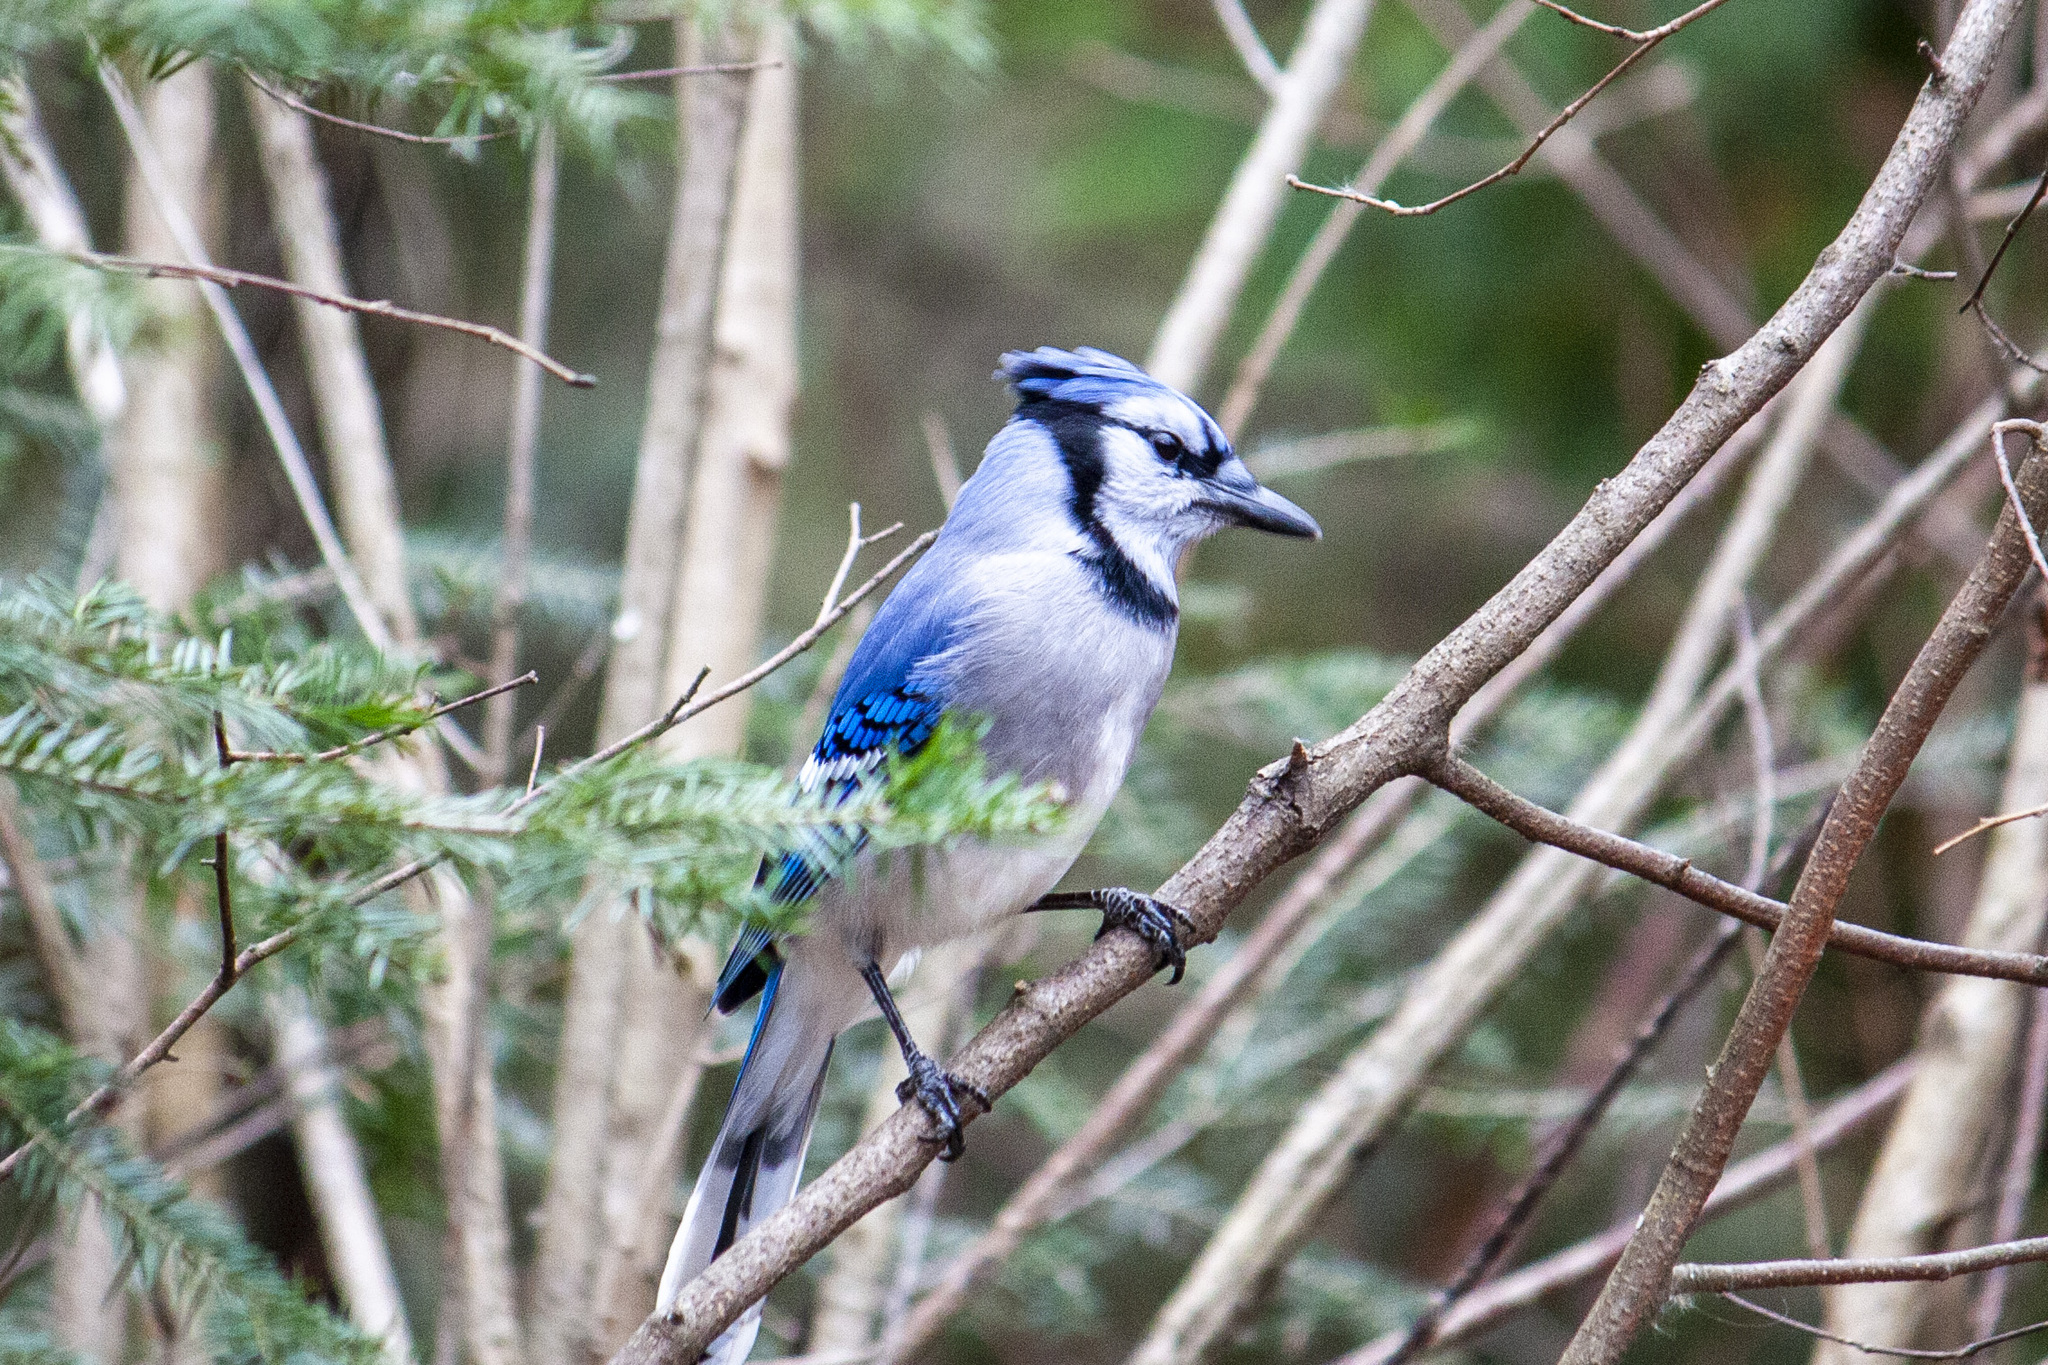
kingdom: Animalia
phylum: Chordata
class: Aves
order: Passeriformes
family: Corvidae
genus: Cyanocitta
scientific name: Cyanocitta cristata
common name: Blue jay
